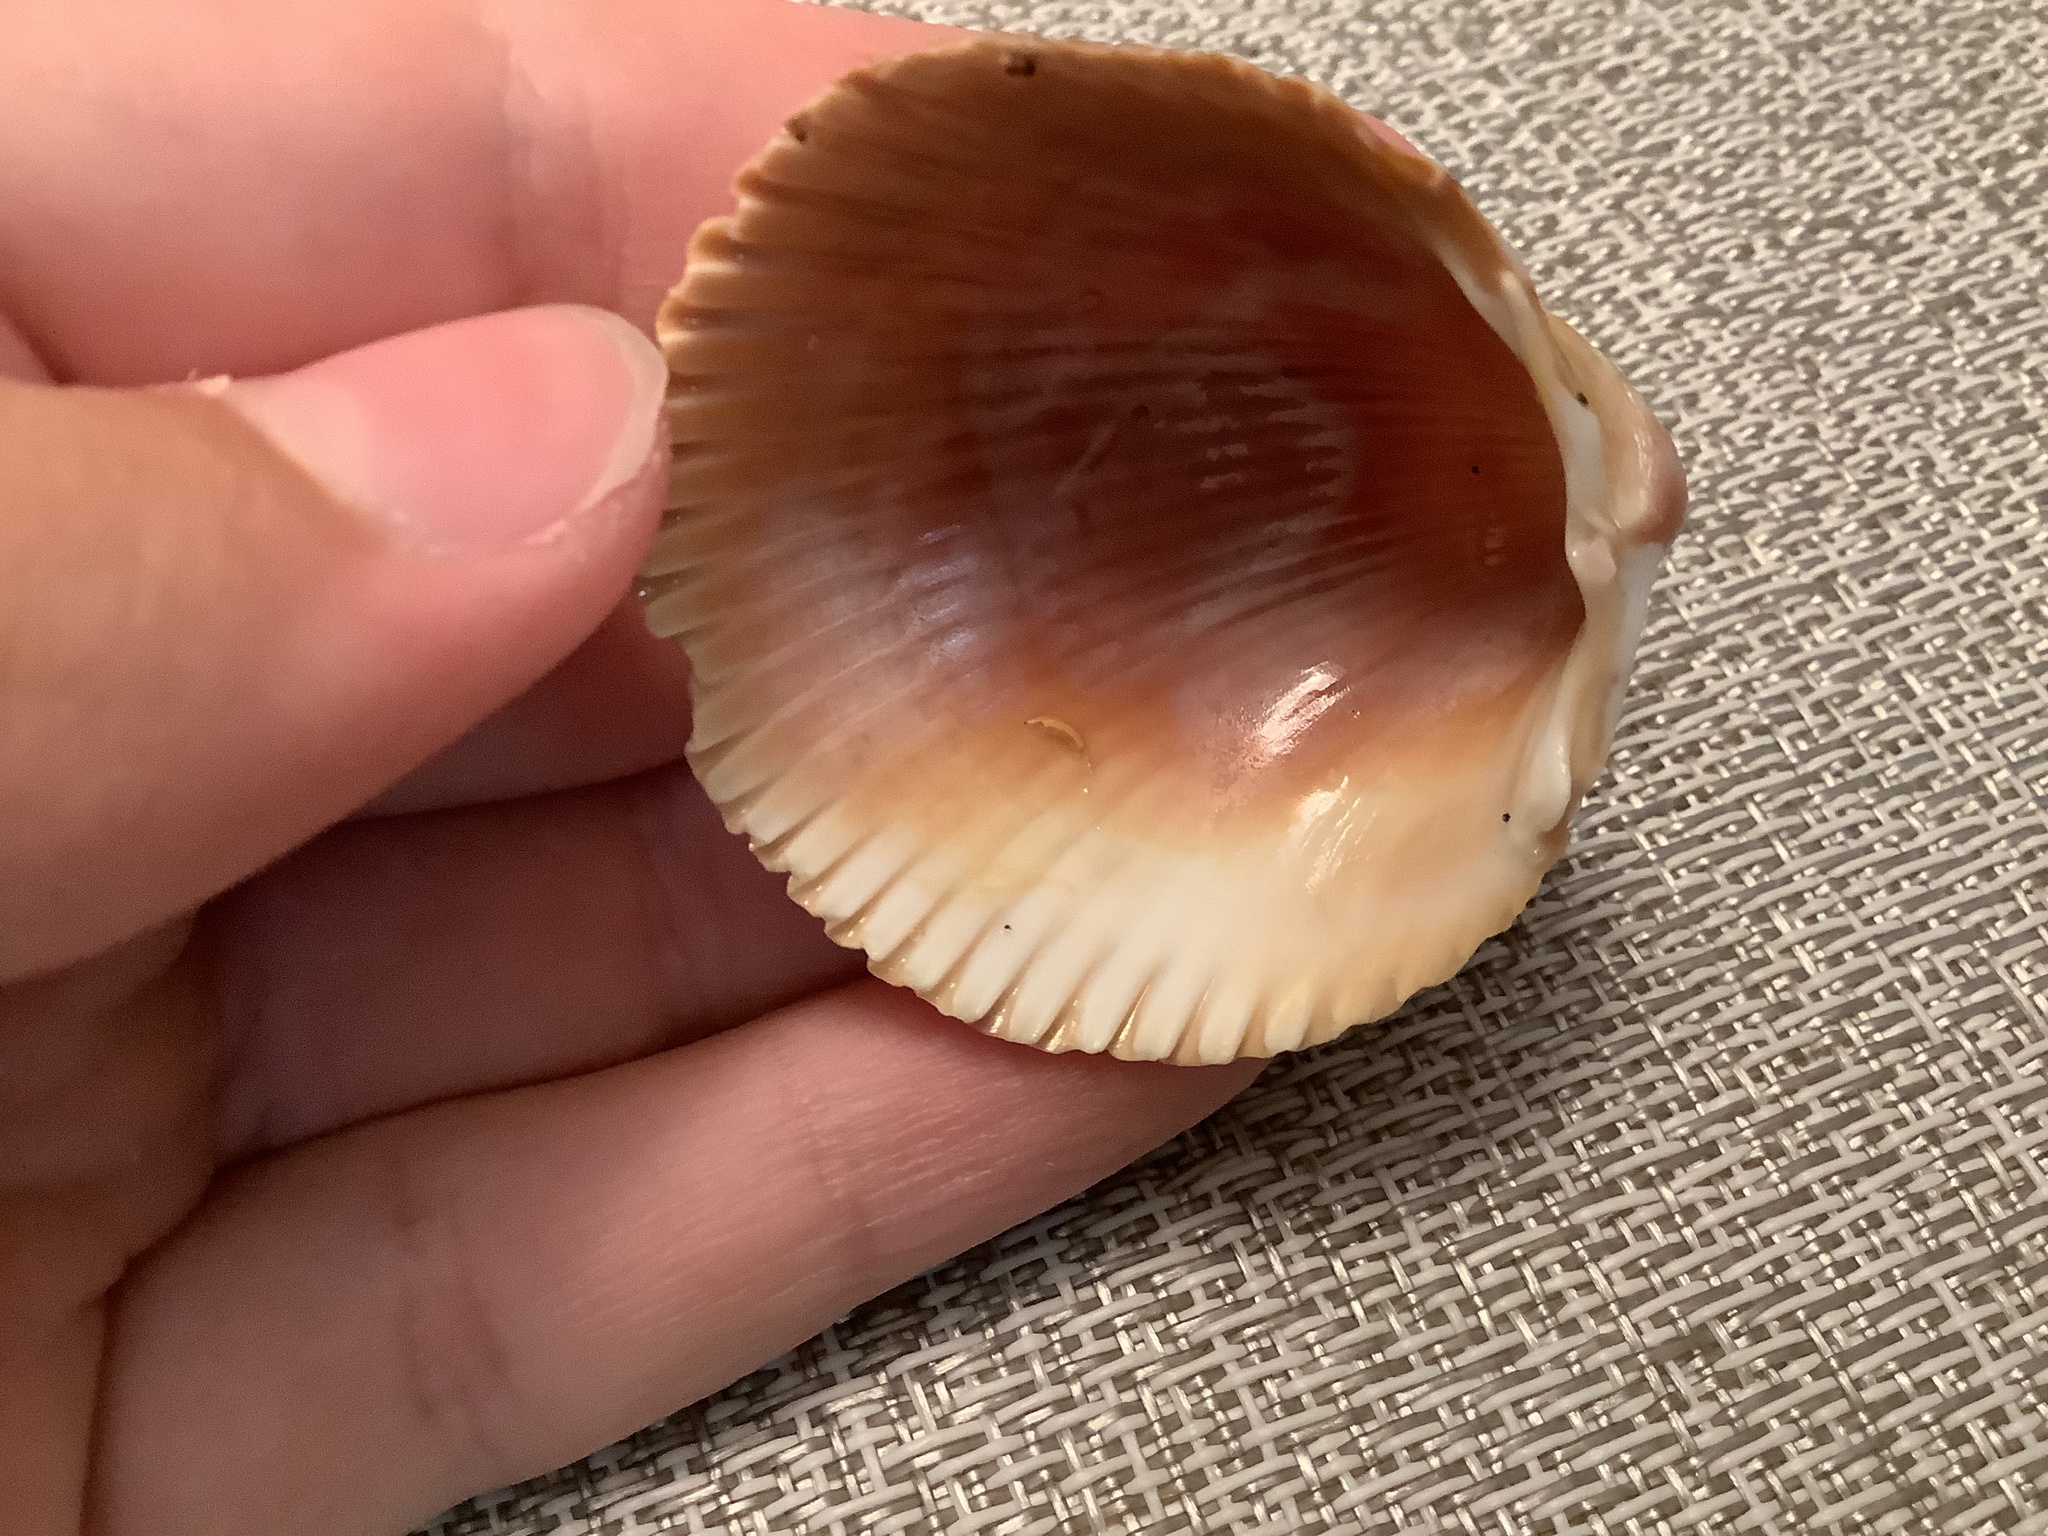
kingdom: Animalia
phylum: Mollusca
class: Bivalvia
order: Cardiida
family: Cardiidae
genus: Dinocardium
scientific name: Dinocardium robustum
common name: Atlantic giant cockle
